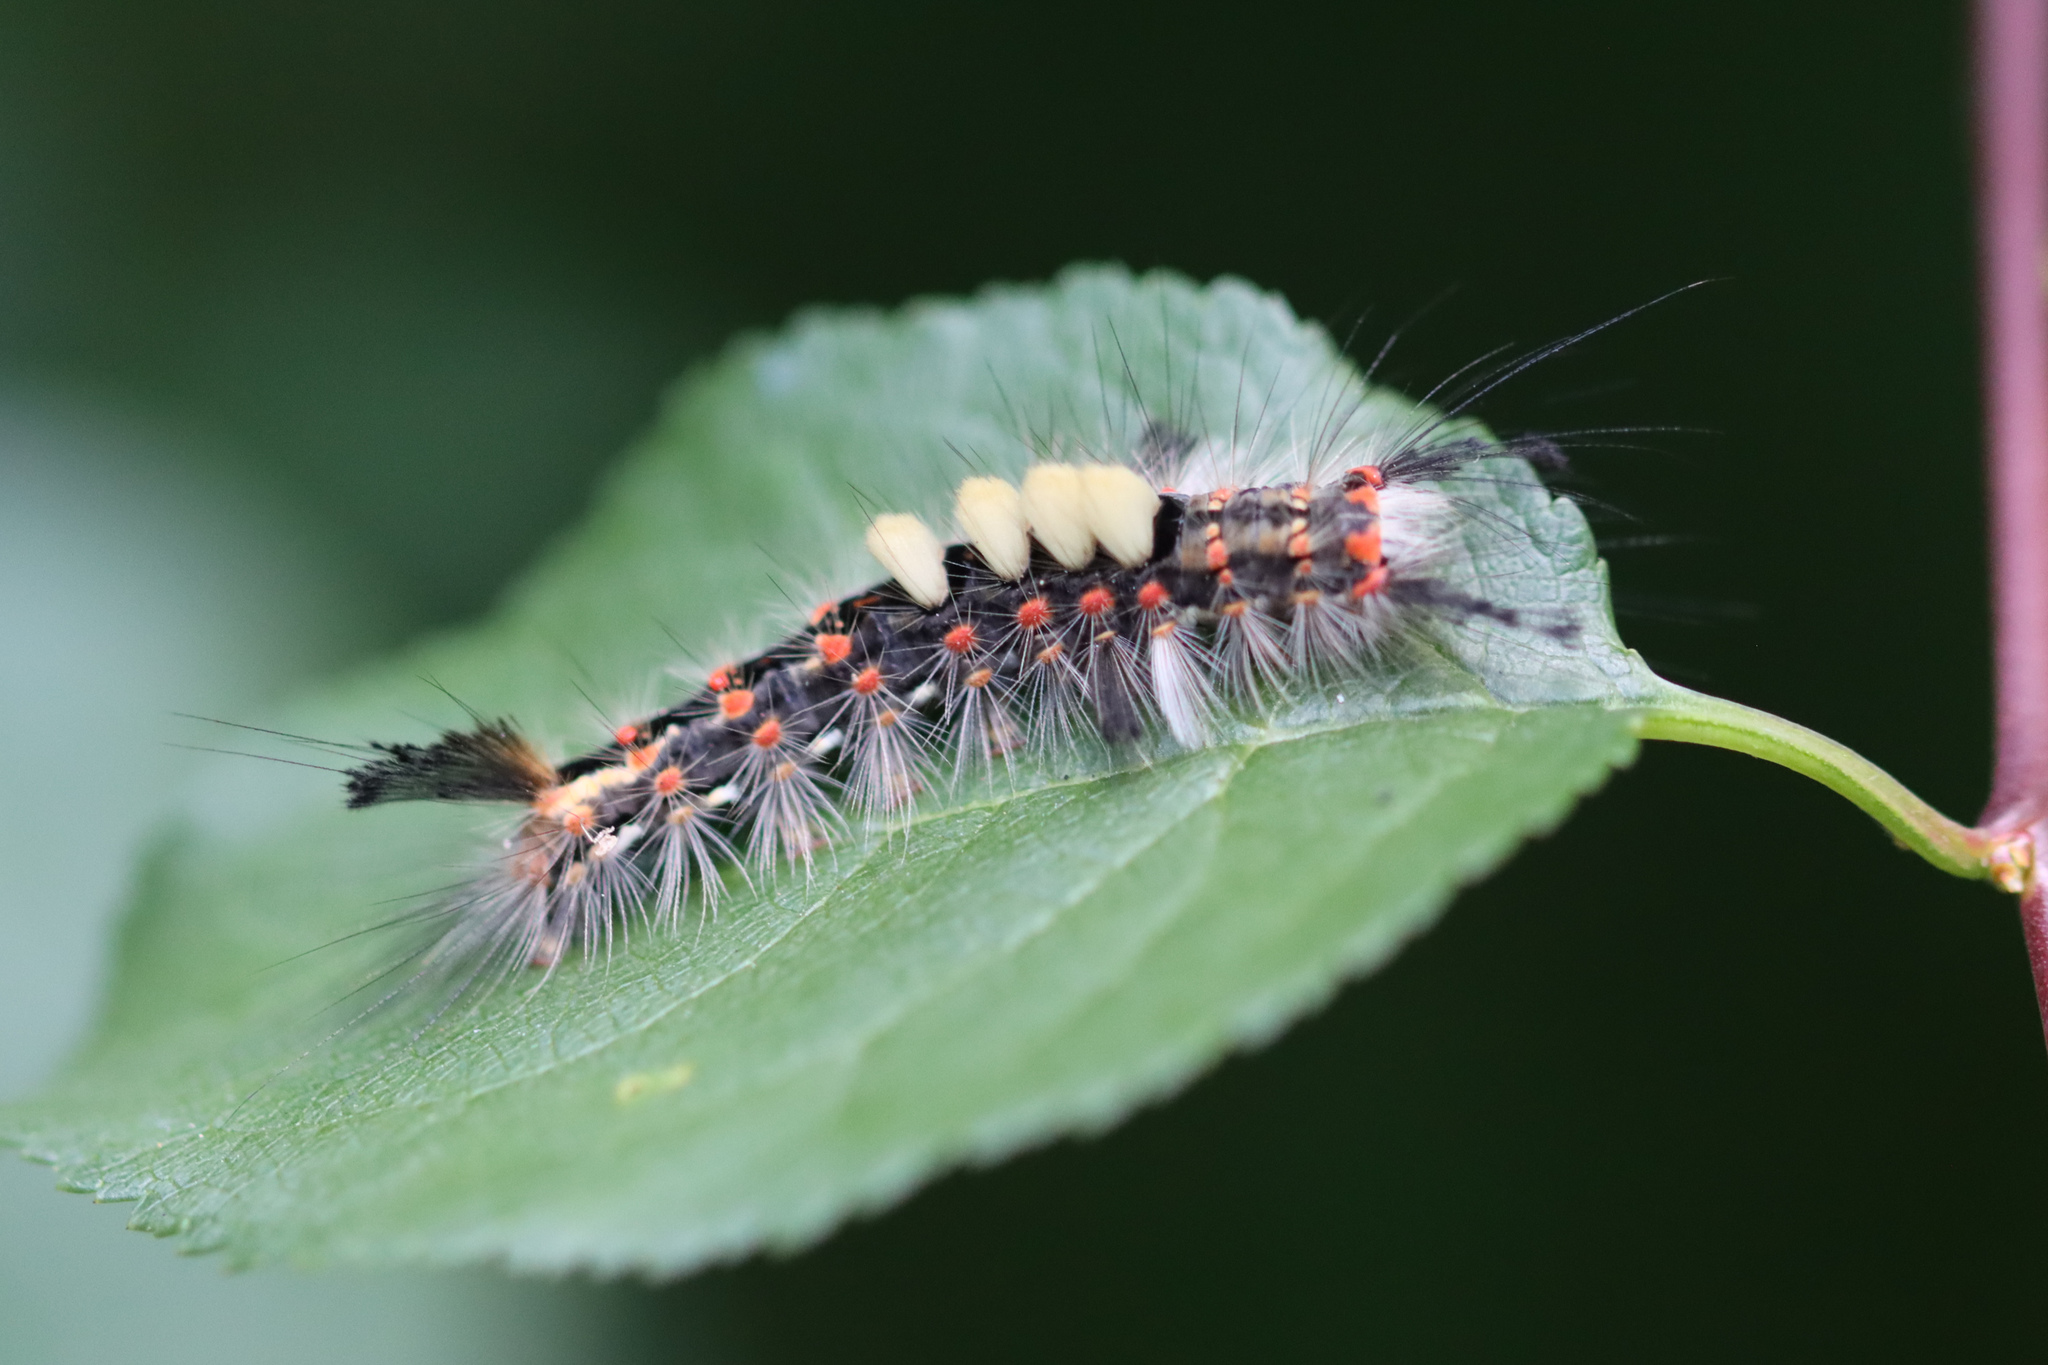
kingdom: Animalia
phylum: Arthropoda
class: Insecta
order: Lepidoptera
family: Erebidae
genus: Orgyia
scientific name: Orgyia antiqua
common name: Vapourer
